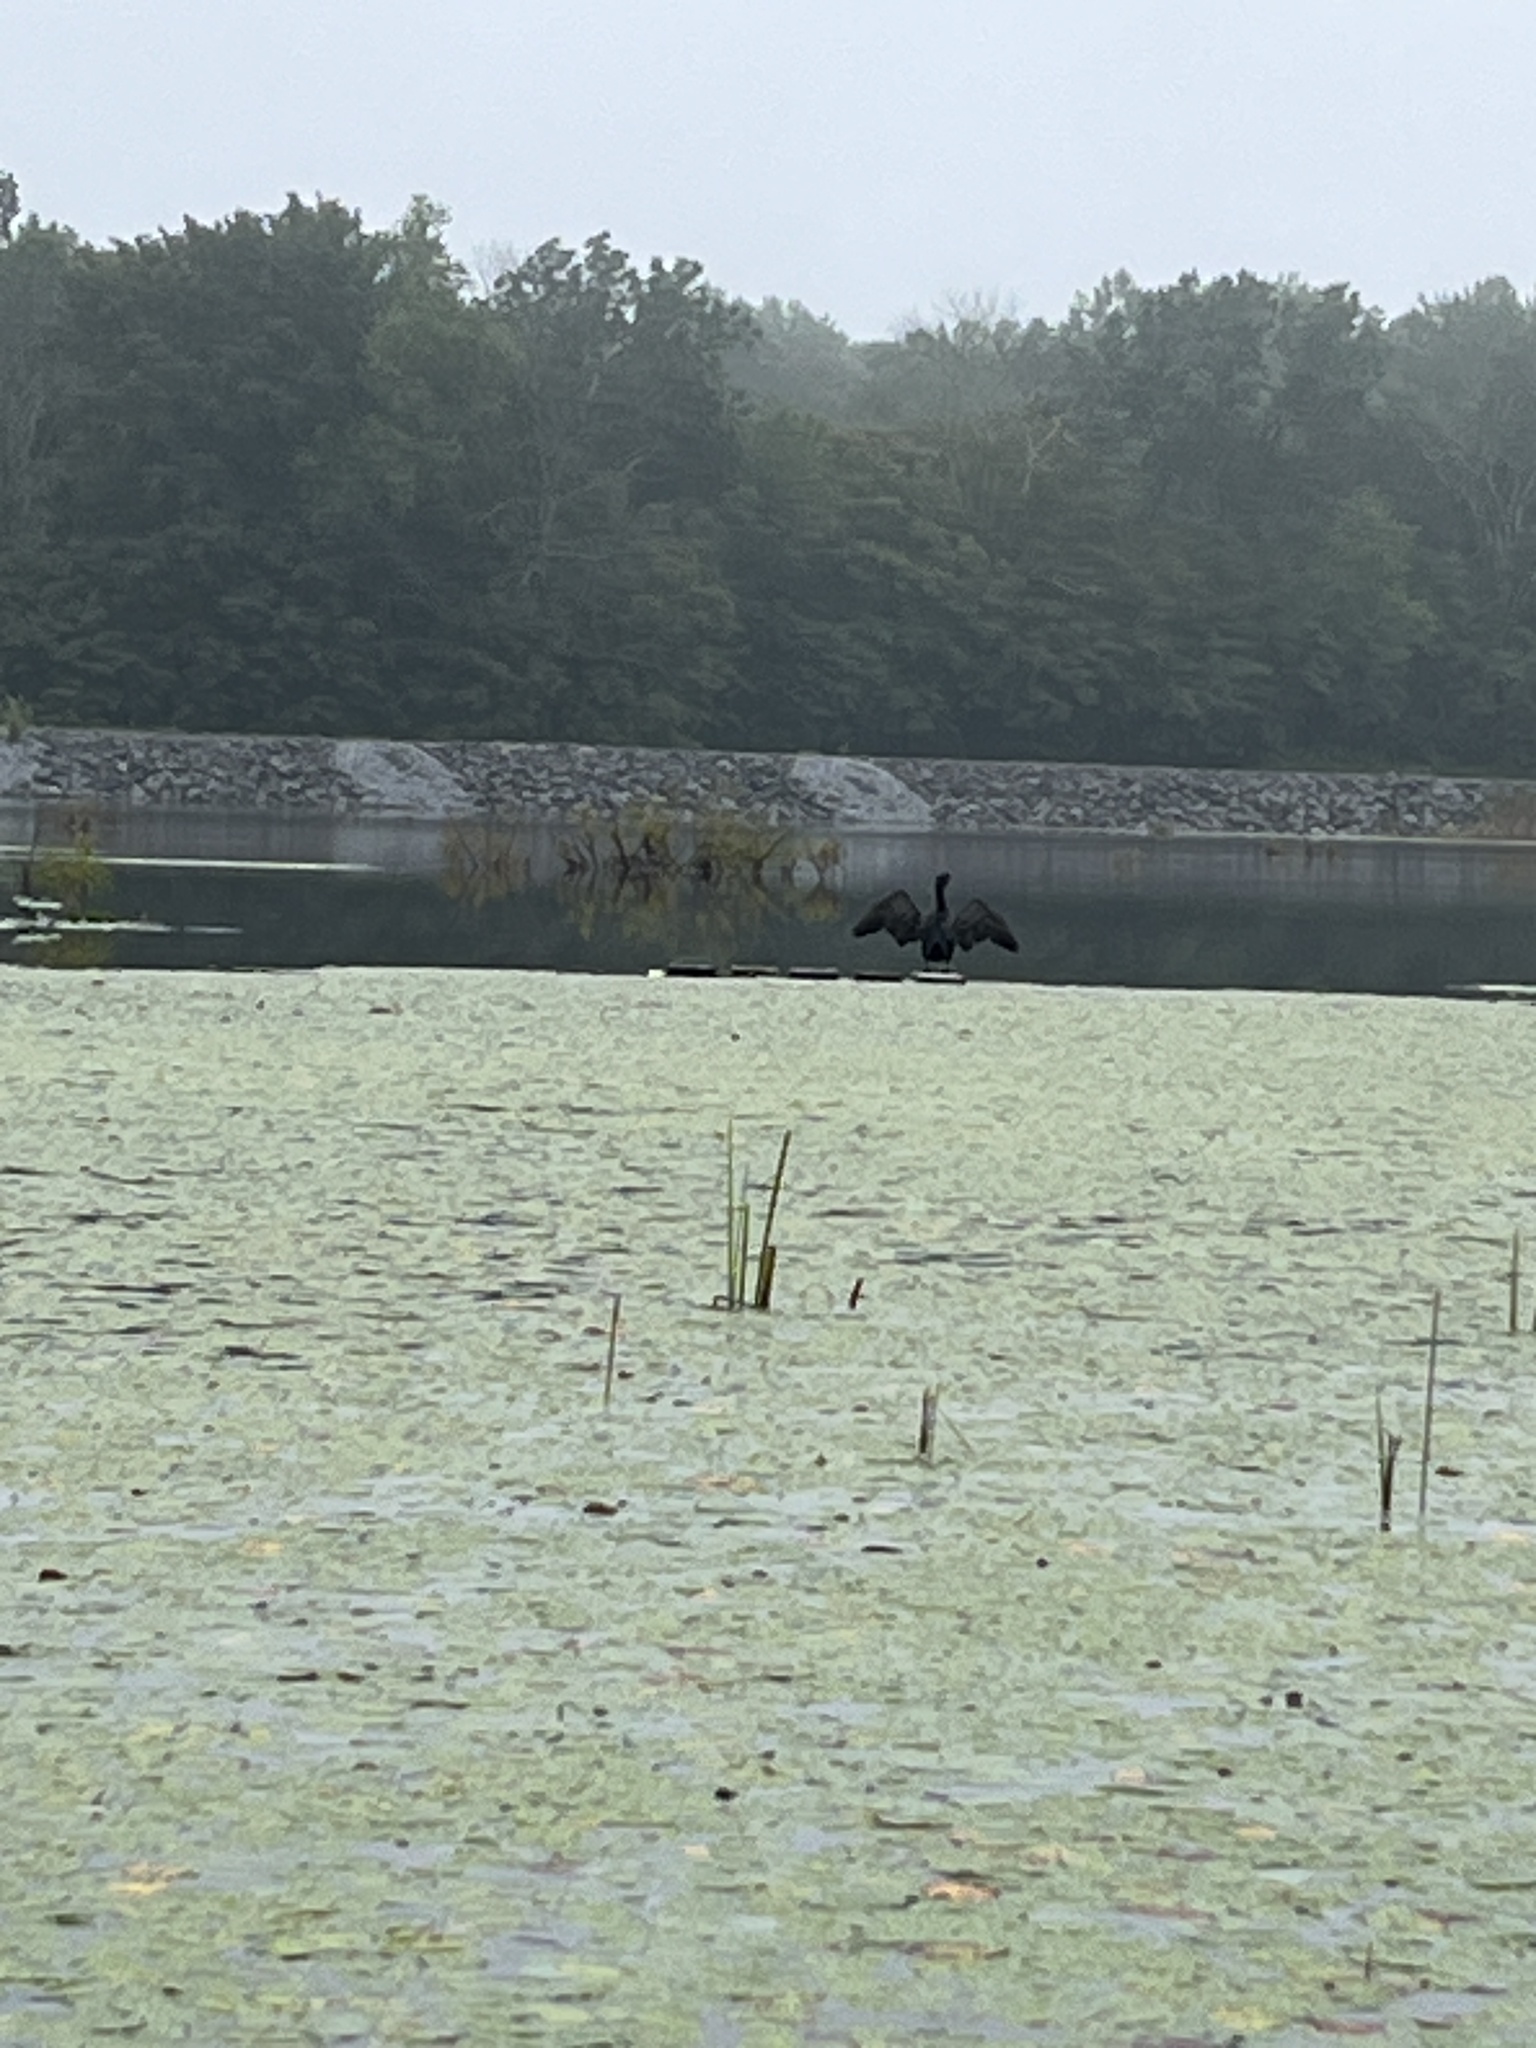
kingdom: Animalia
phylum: Chordata
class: Aves
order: Suliformes
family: Phalacrocoracidae
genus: Phalacrocorax
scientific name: Phalacrocorax auritus
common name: Double-crested cormorant
